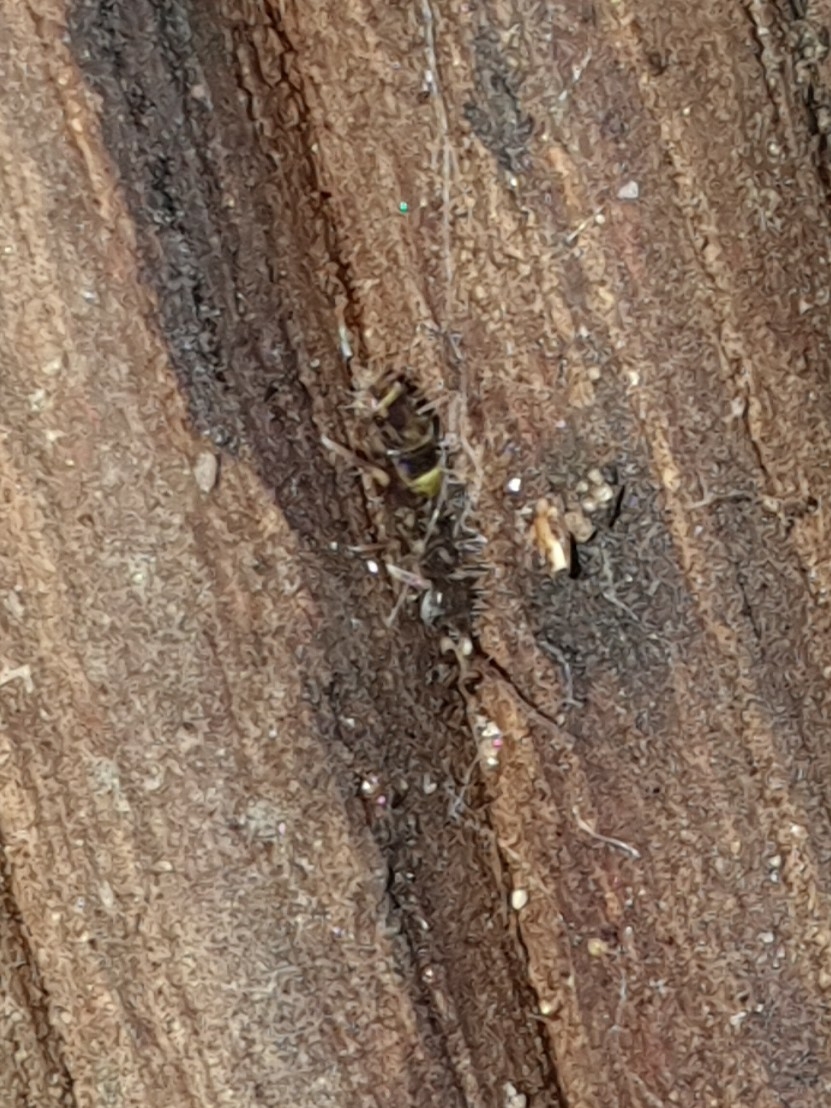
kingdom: Animalia
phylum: Arthropoda
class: Collembola
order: Entomobryomorpha
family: Orchesellidae
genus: Orchesella
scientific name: Orchesella cincta
